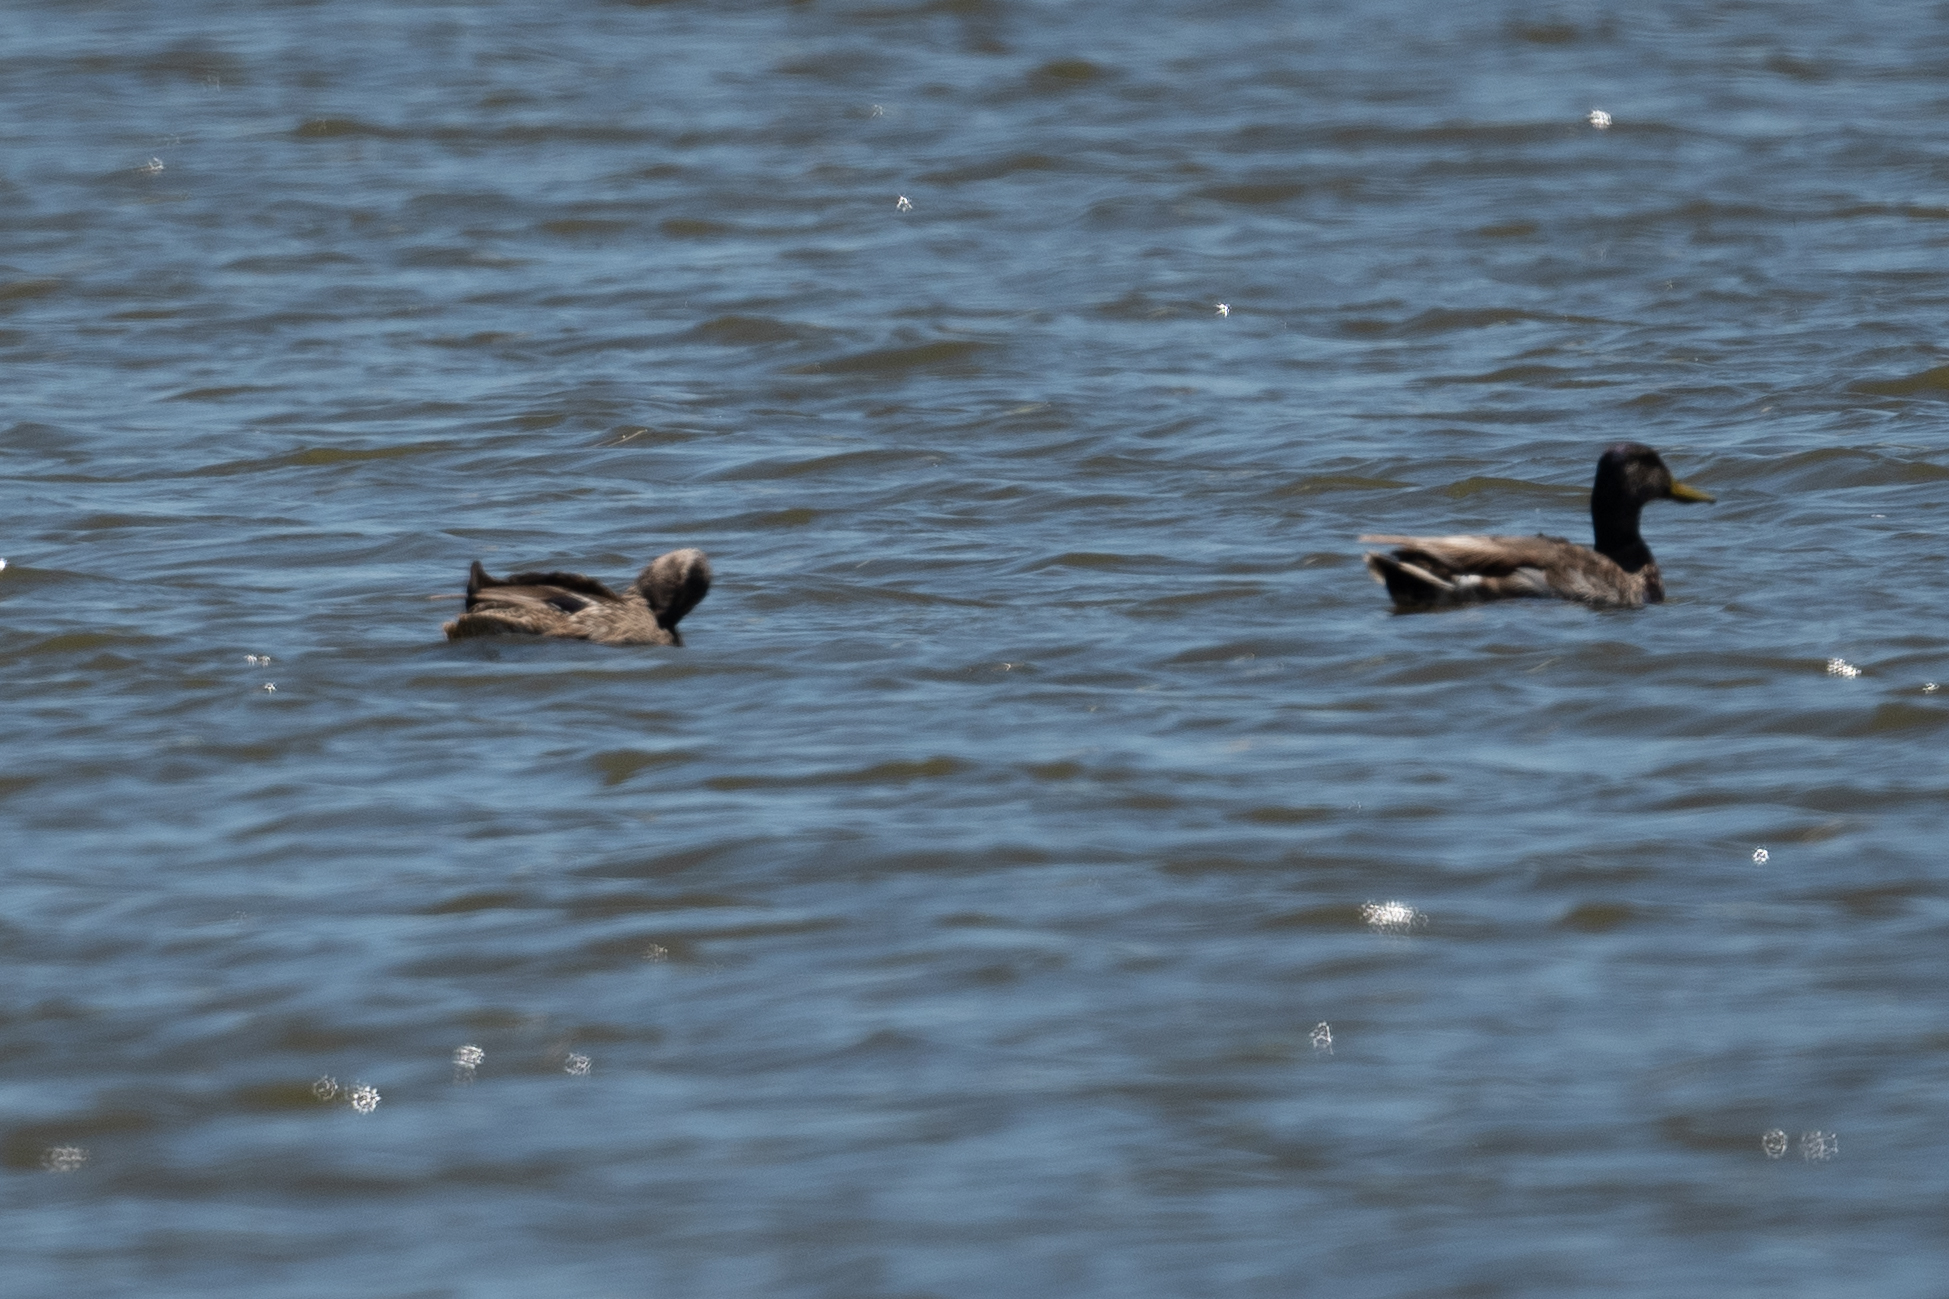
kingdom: Animalia
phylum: Chordata
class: Aves
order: Anseriformes
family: Anatidae
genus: Anas
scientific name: Anas platyrhynchos
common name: Mallard
